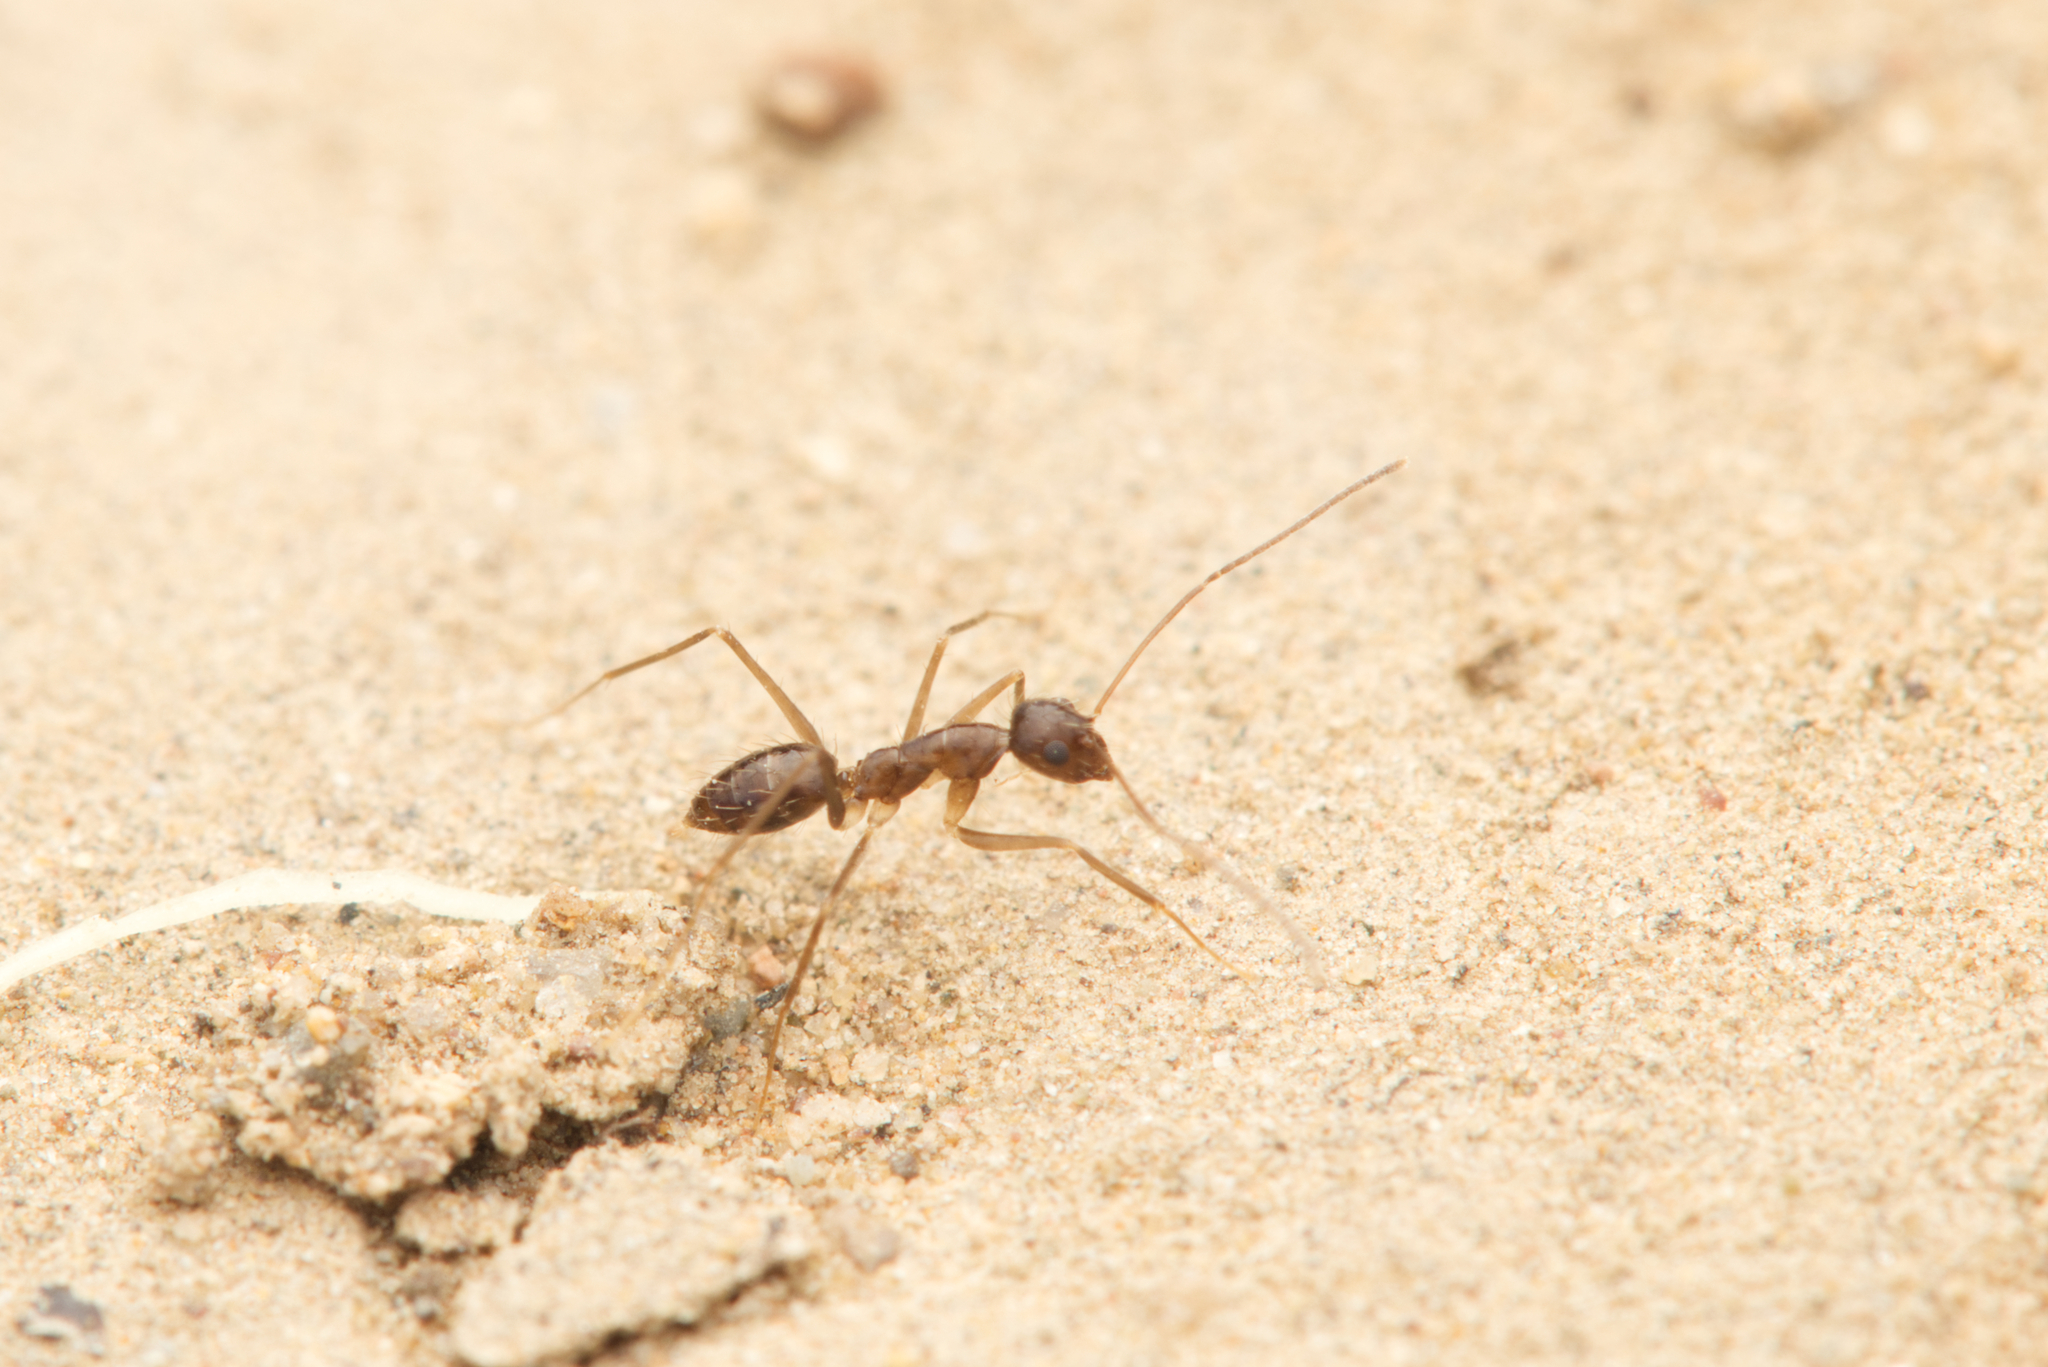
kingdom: Animalia
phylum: Arthropoda
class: Insecta
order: Hymenoptera
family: Formicidae
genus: Paratrechina
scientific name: Paratrechina longicornis
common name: Longhorned crazy ant
